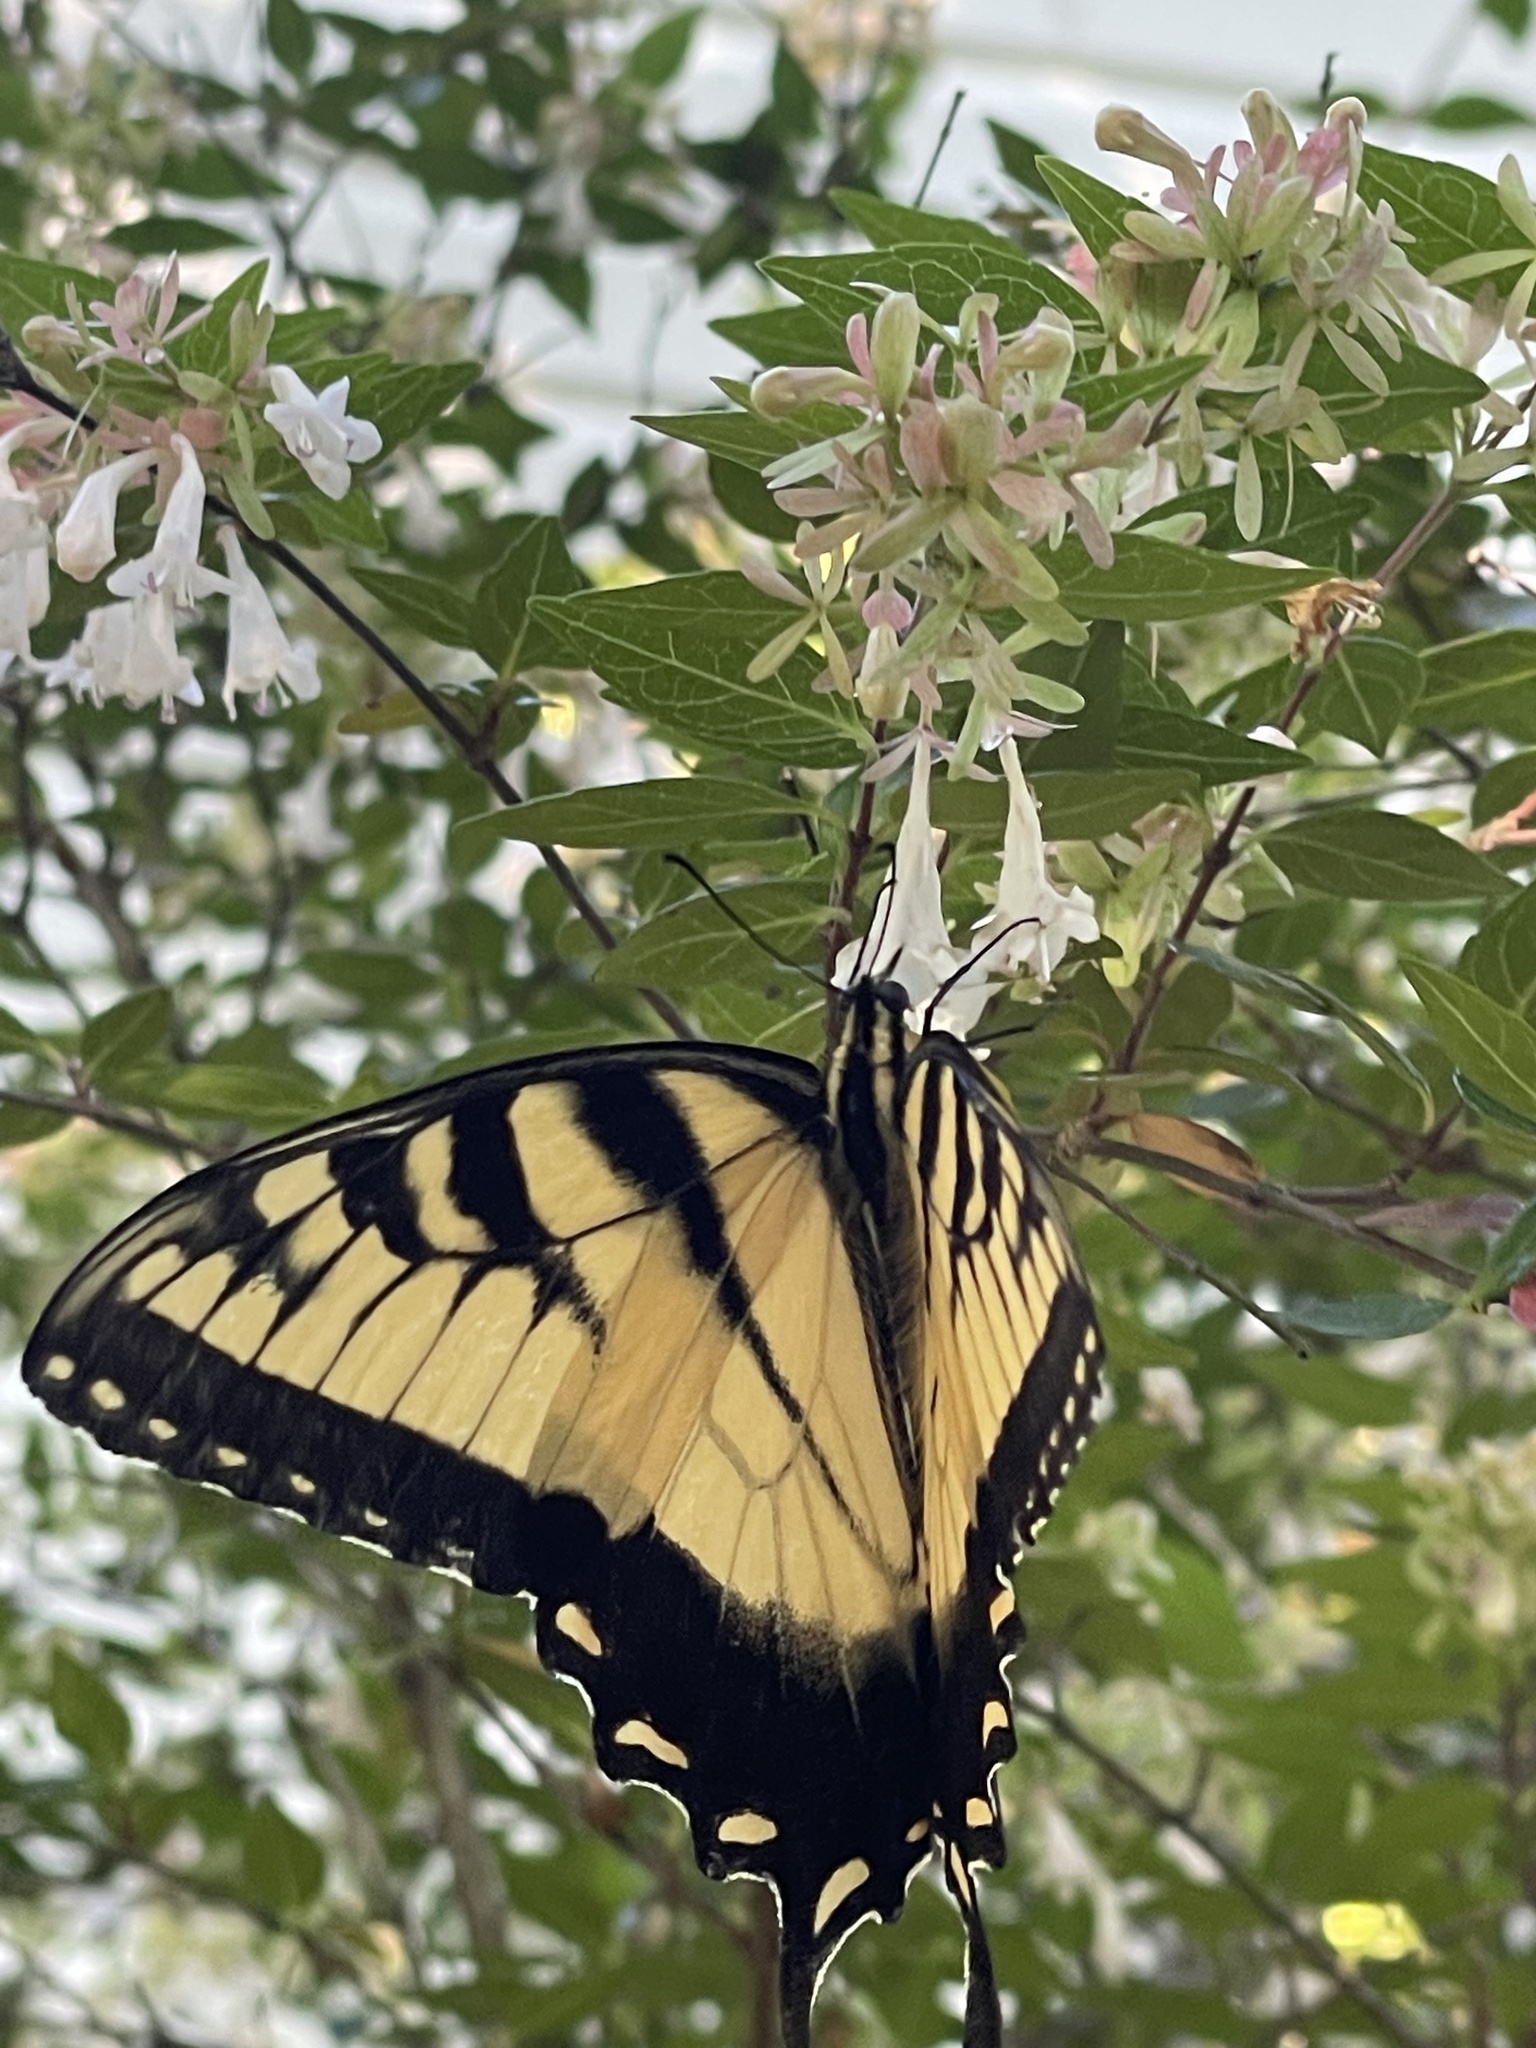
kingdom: Animalia
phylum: Arthropoda
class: Insecta
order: Lepidoptera
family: Papilionidae
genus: Papilio
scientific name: Papilio glaucus
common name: Tiger swallowtail
